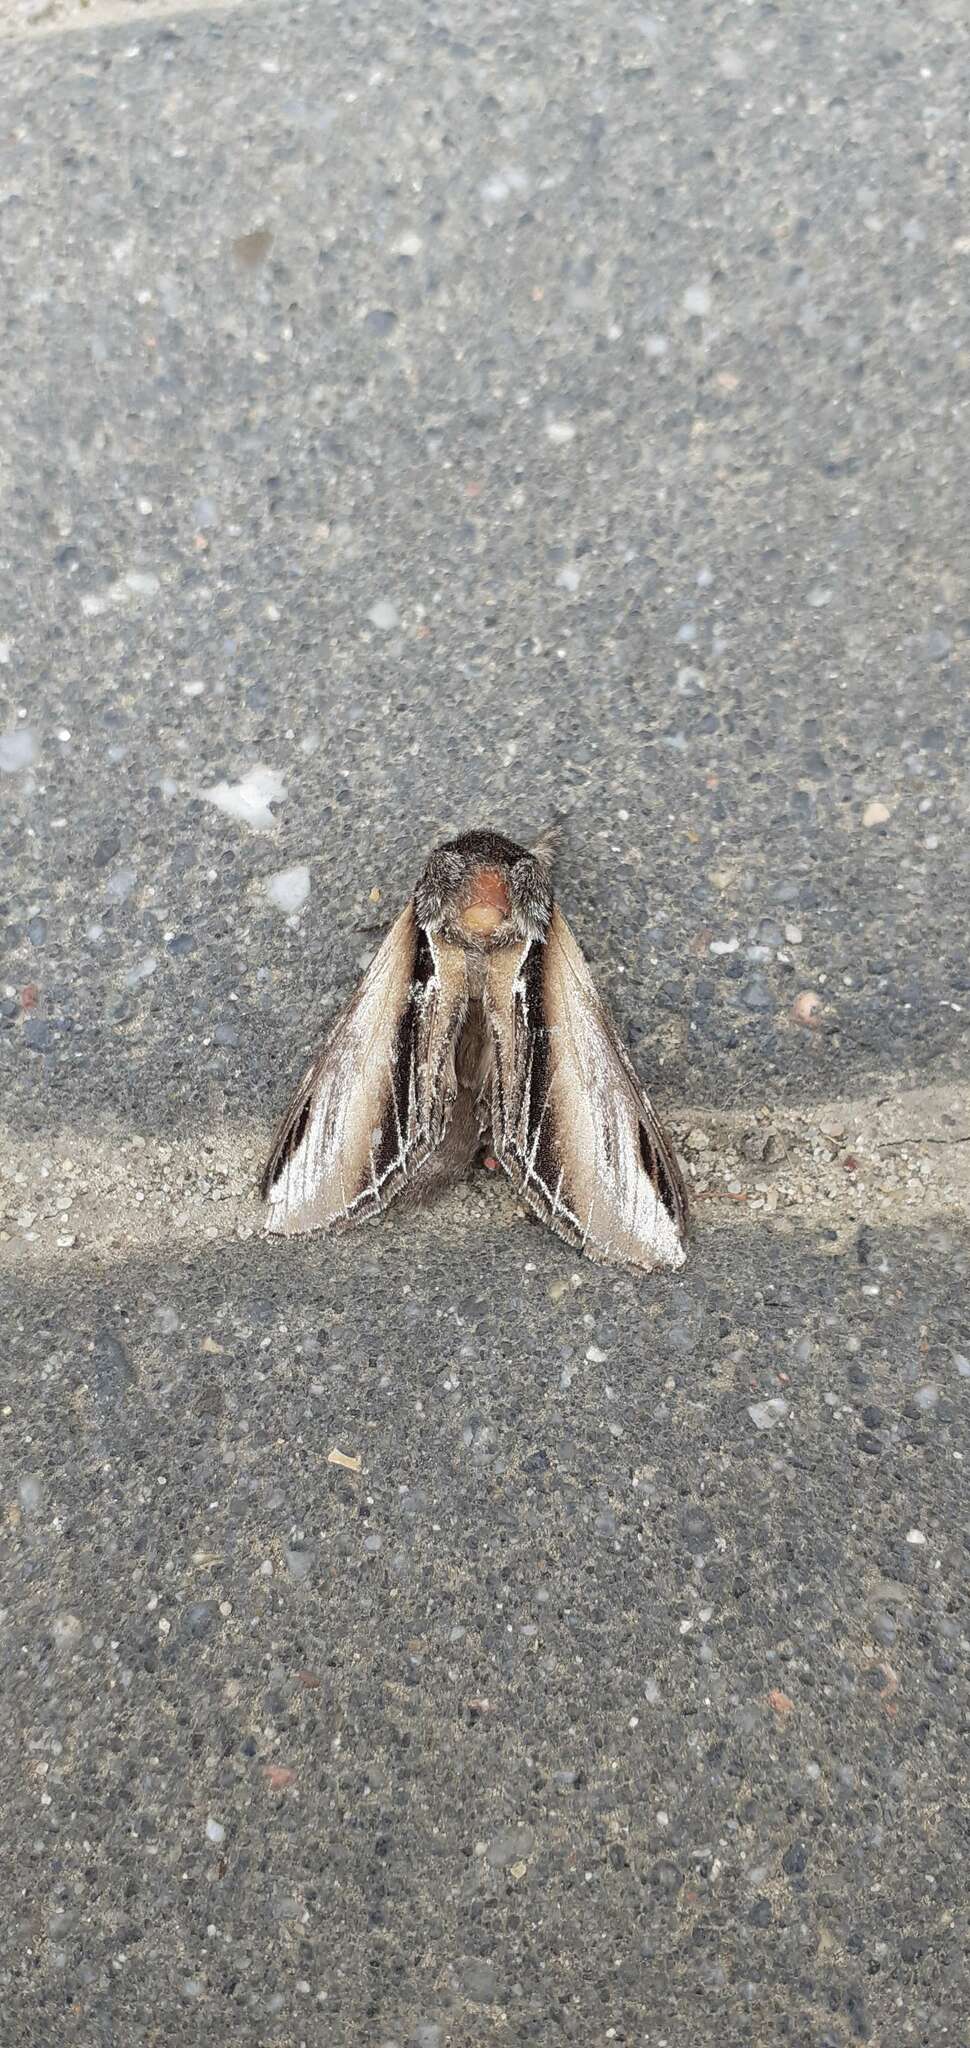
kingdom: Animalia
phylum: Arthropoda
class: Insecta
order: Lepidoptera
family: Notodontidae
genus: Pheosia
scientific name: Pheosia tremula
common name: Swallow prominent
